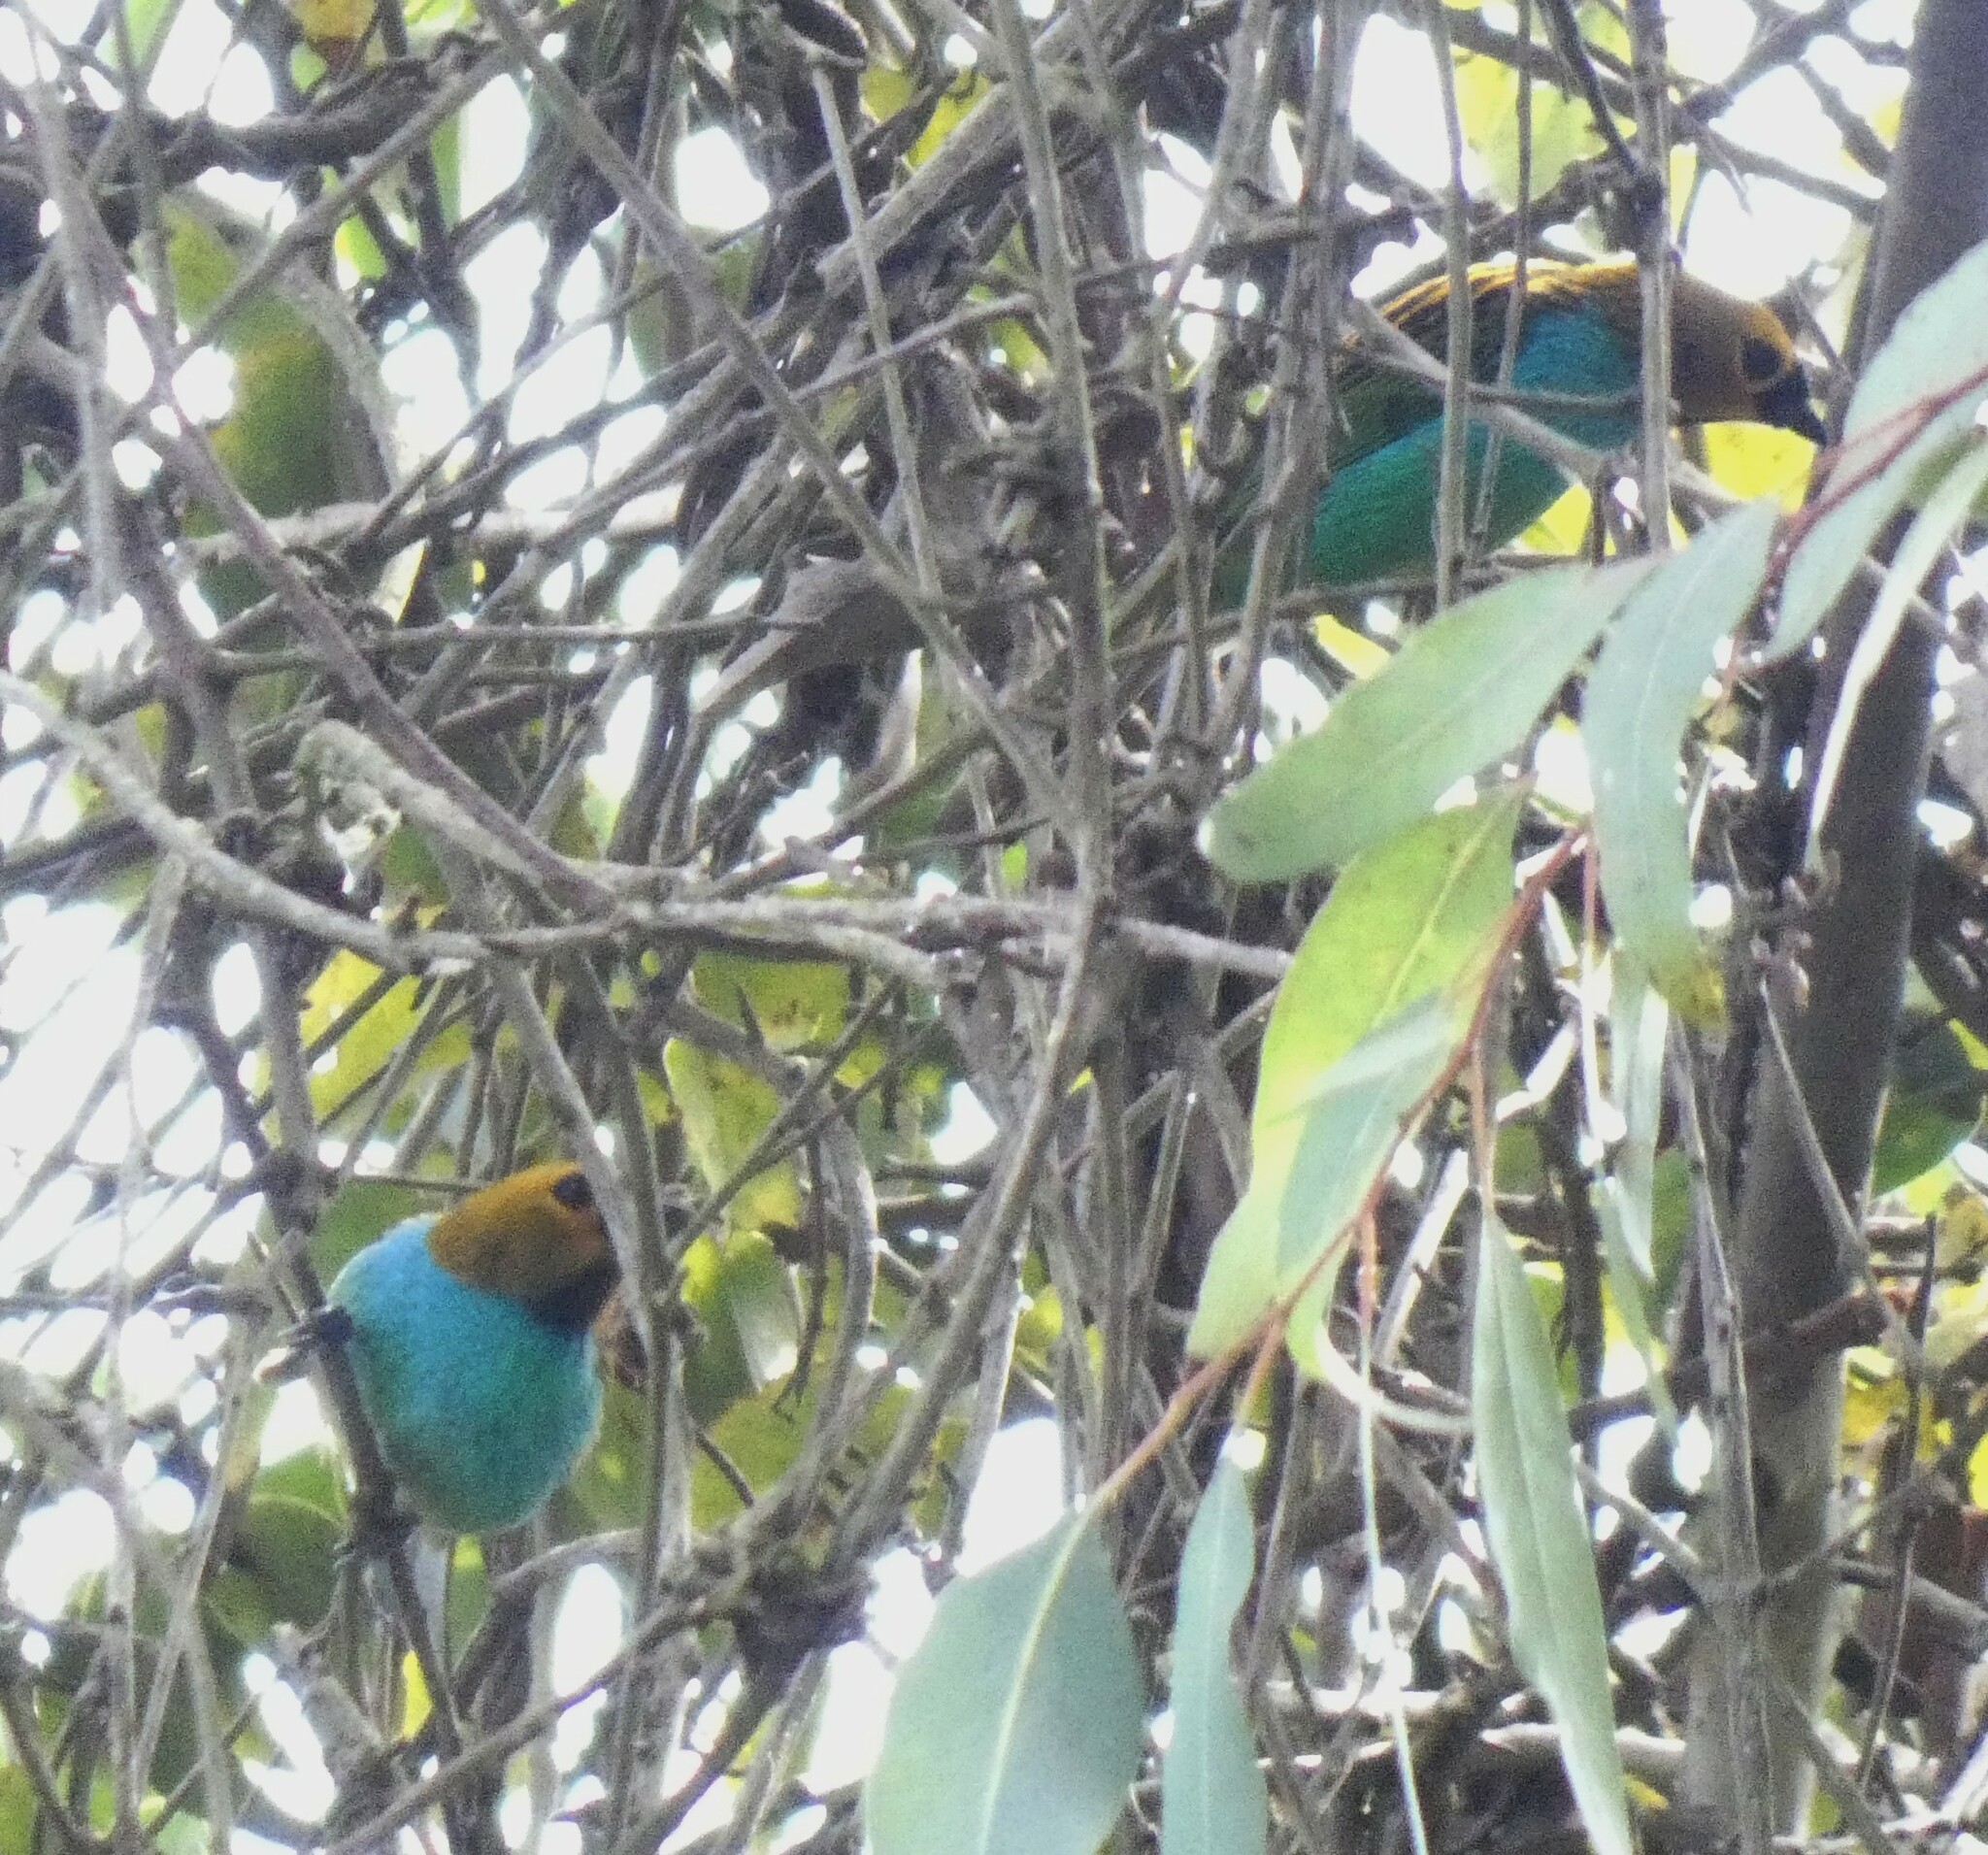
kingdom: Animalia
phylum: Chordata
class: Aves
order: Passeriformes
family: Thraupidae
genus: Tangara
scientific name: Tangara cyanoventris
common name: Gilt-edged tanager
